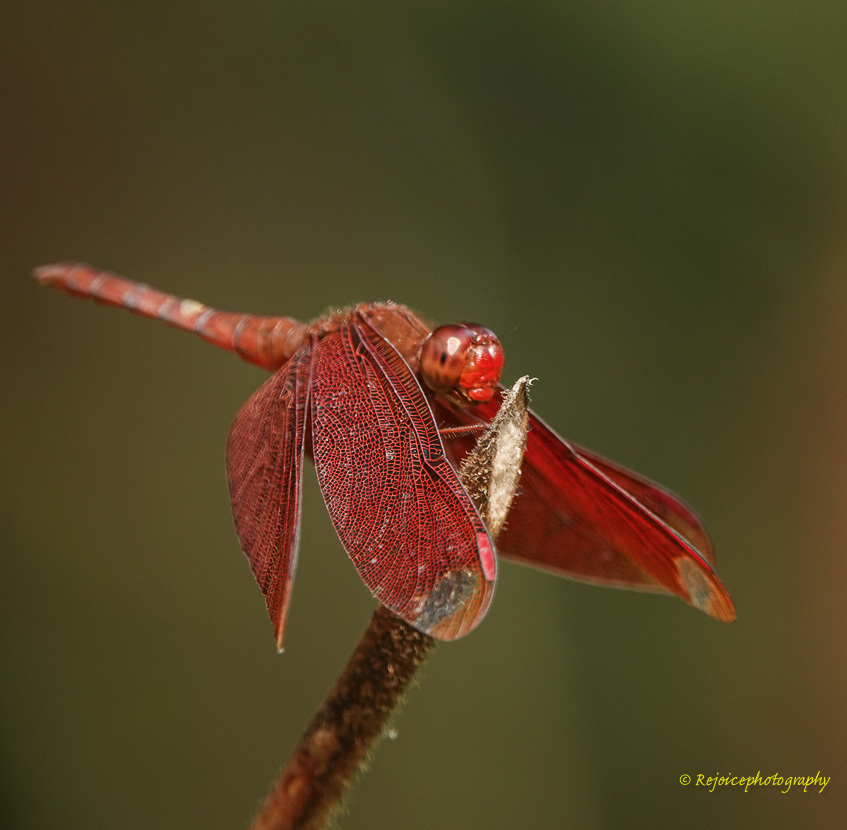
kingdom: Animalia
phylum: Arthropoda
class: Insecta
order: Odonata
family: Libellulidae
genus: Neurothemis
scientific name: Neurothemis fulvia
